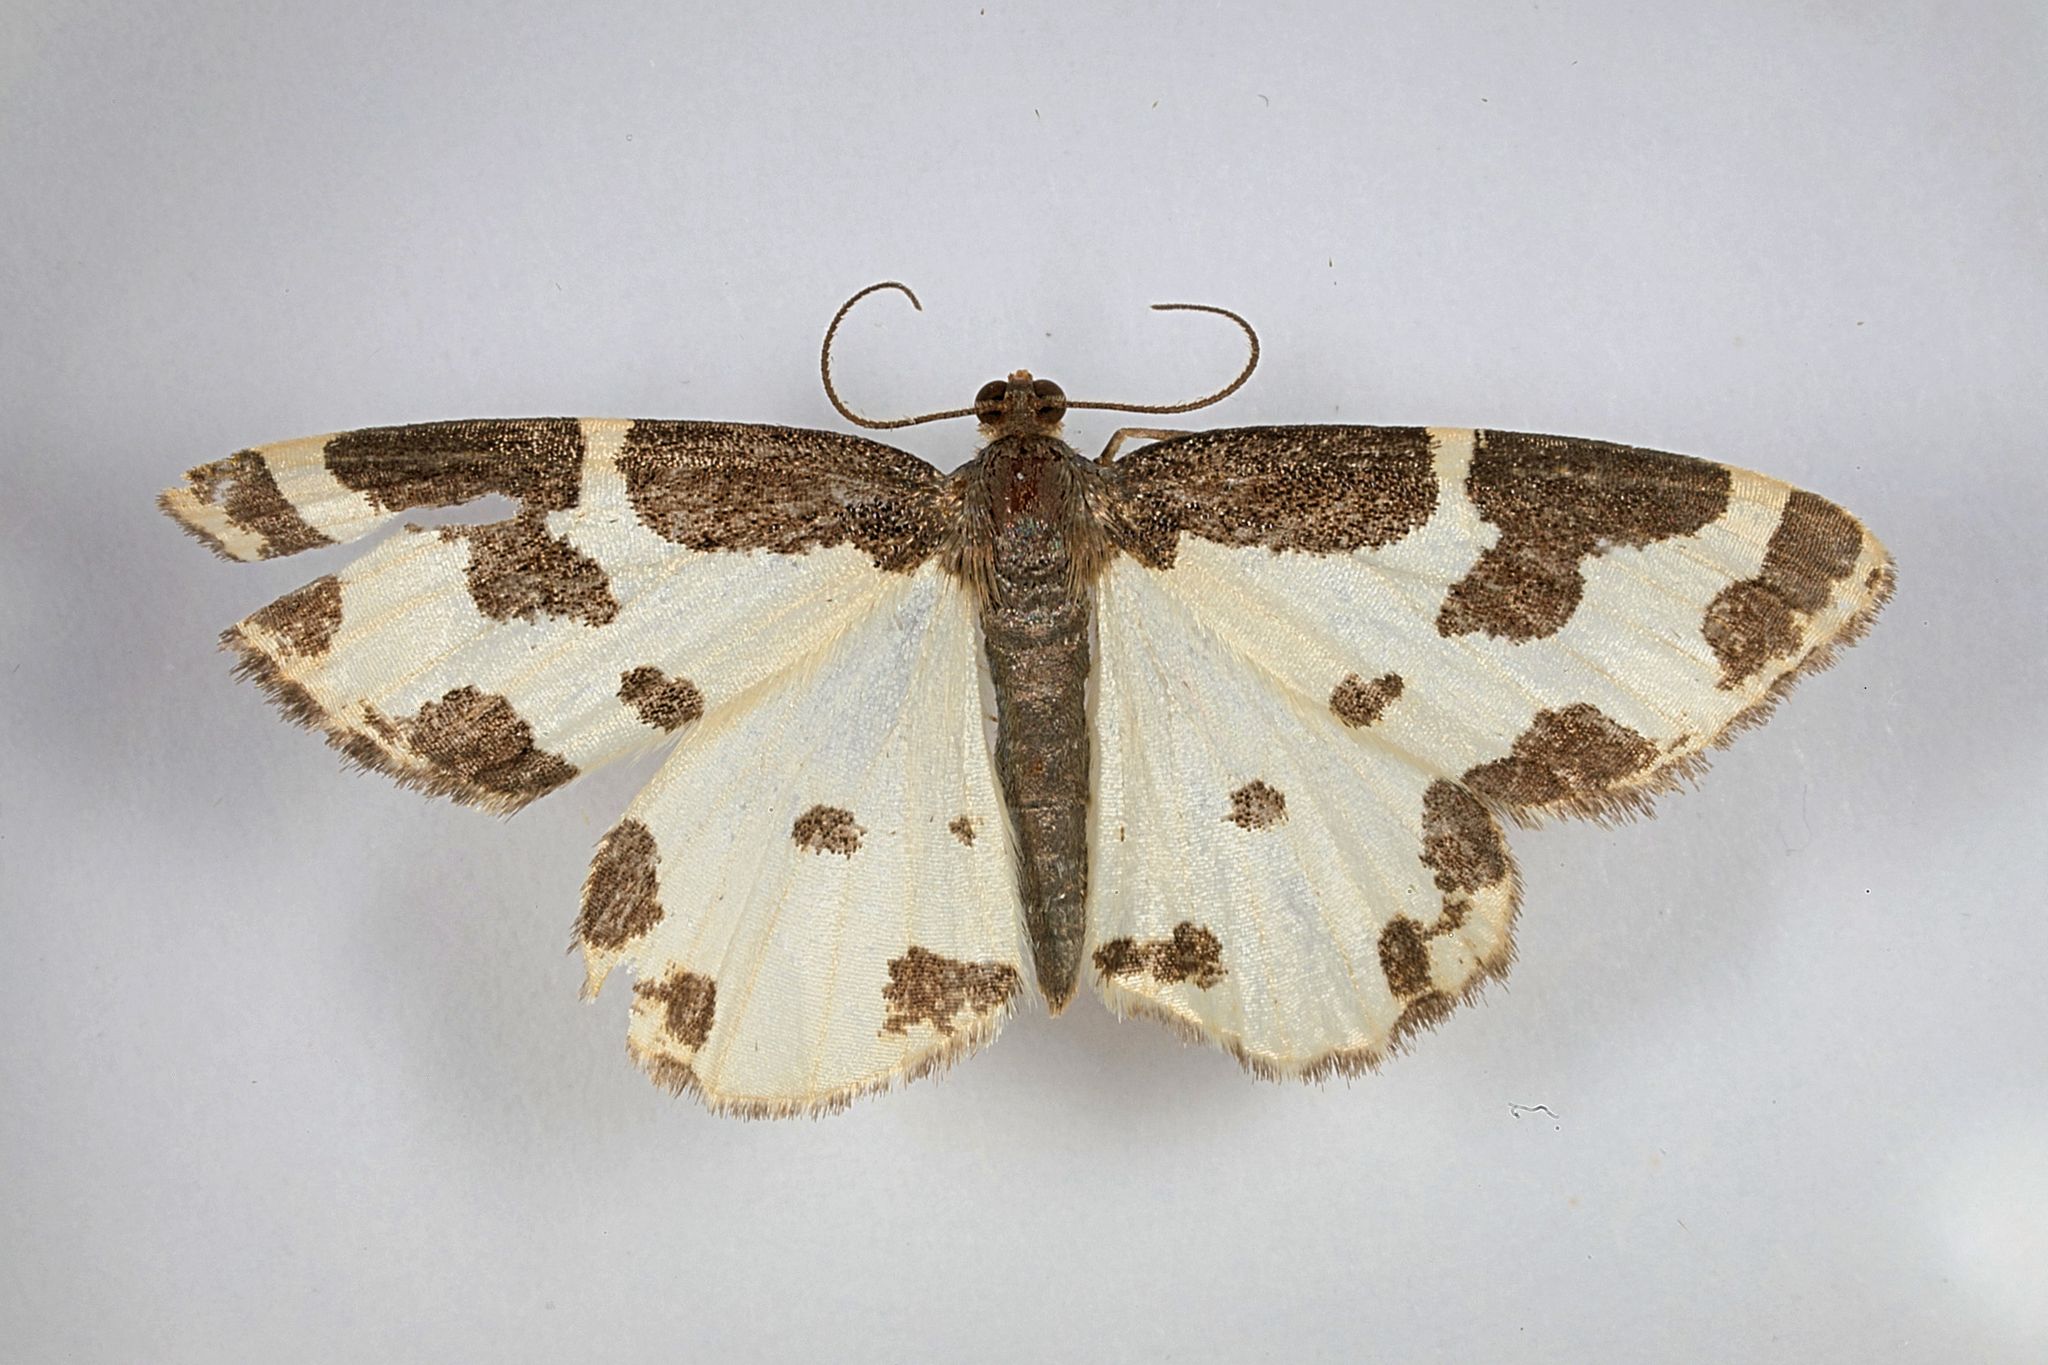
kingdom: Animalia
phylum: Arthropoda
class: Insecta
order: Lepidoptera
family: Geometridae
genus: Lomaspilis
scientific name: Lomaspilis marginata
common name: Clouded border
